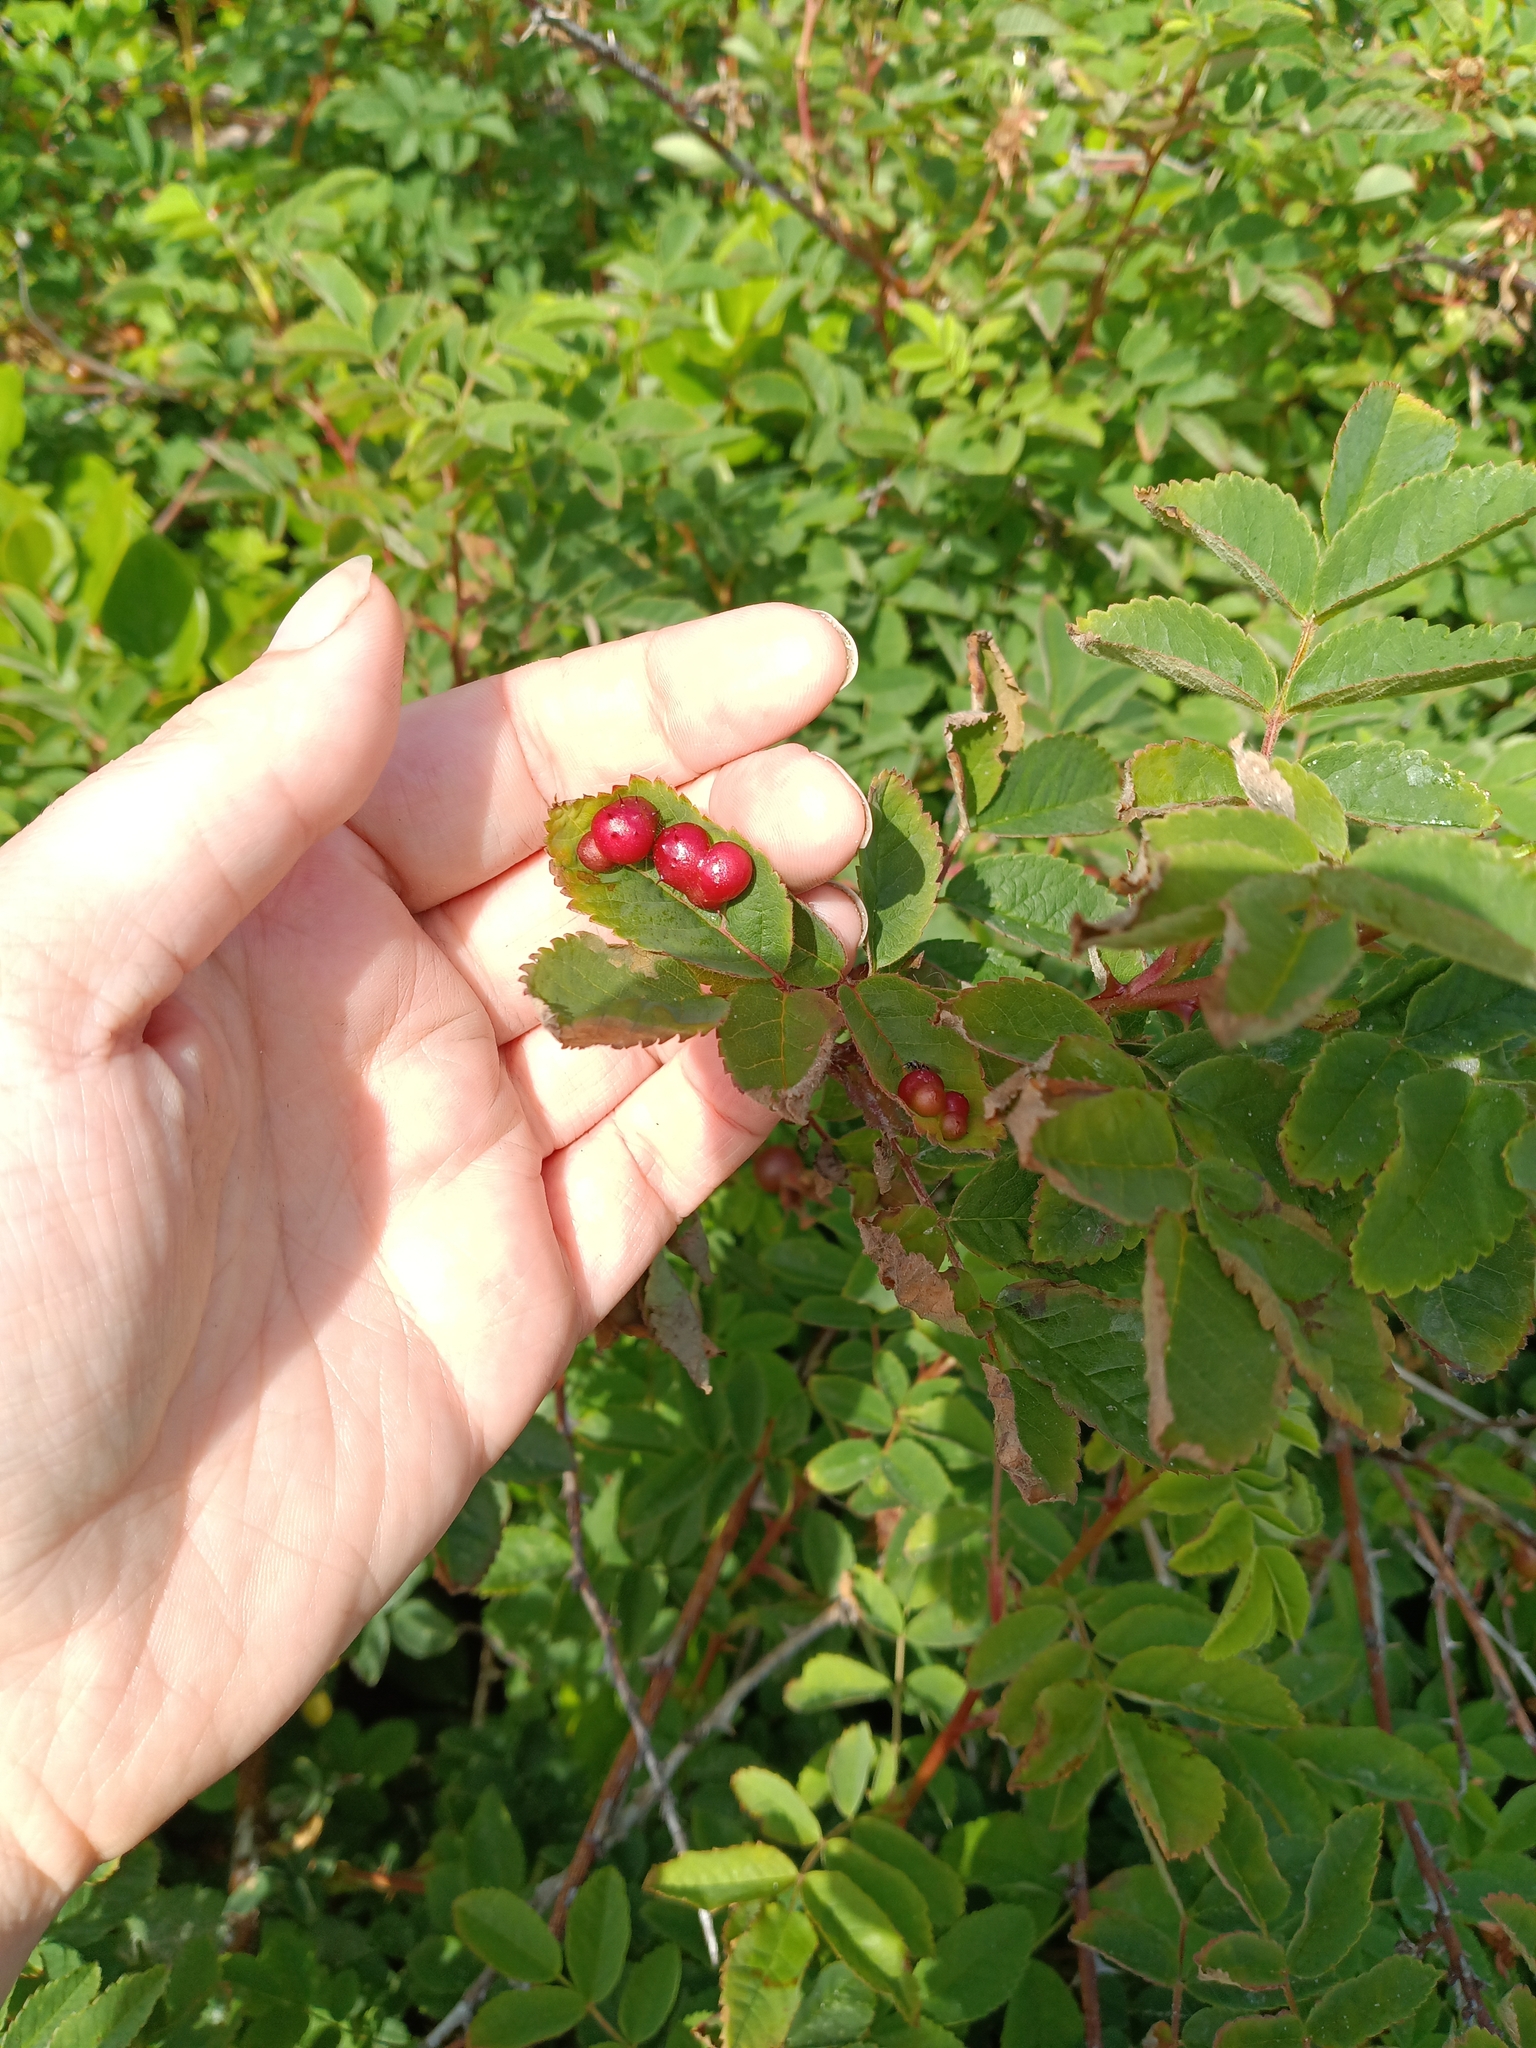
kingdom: Animalia
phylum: Arthropoda
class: Insecta
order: Hymenoptera
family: Cynipidae
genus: Diplolepis
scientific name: Diplolepis polita
